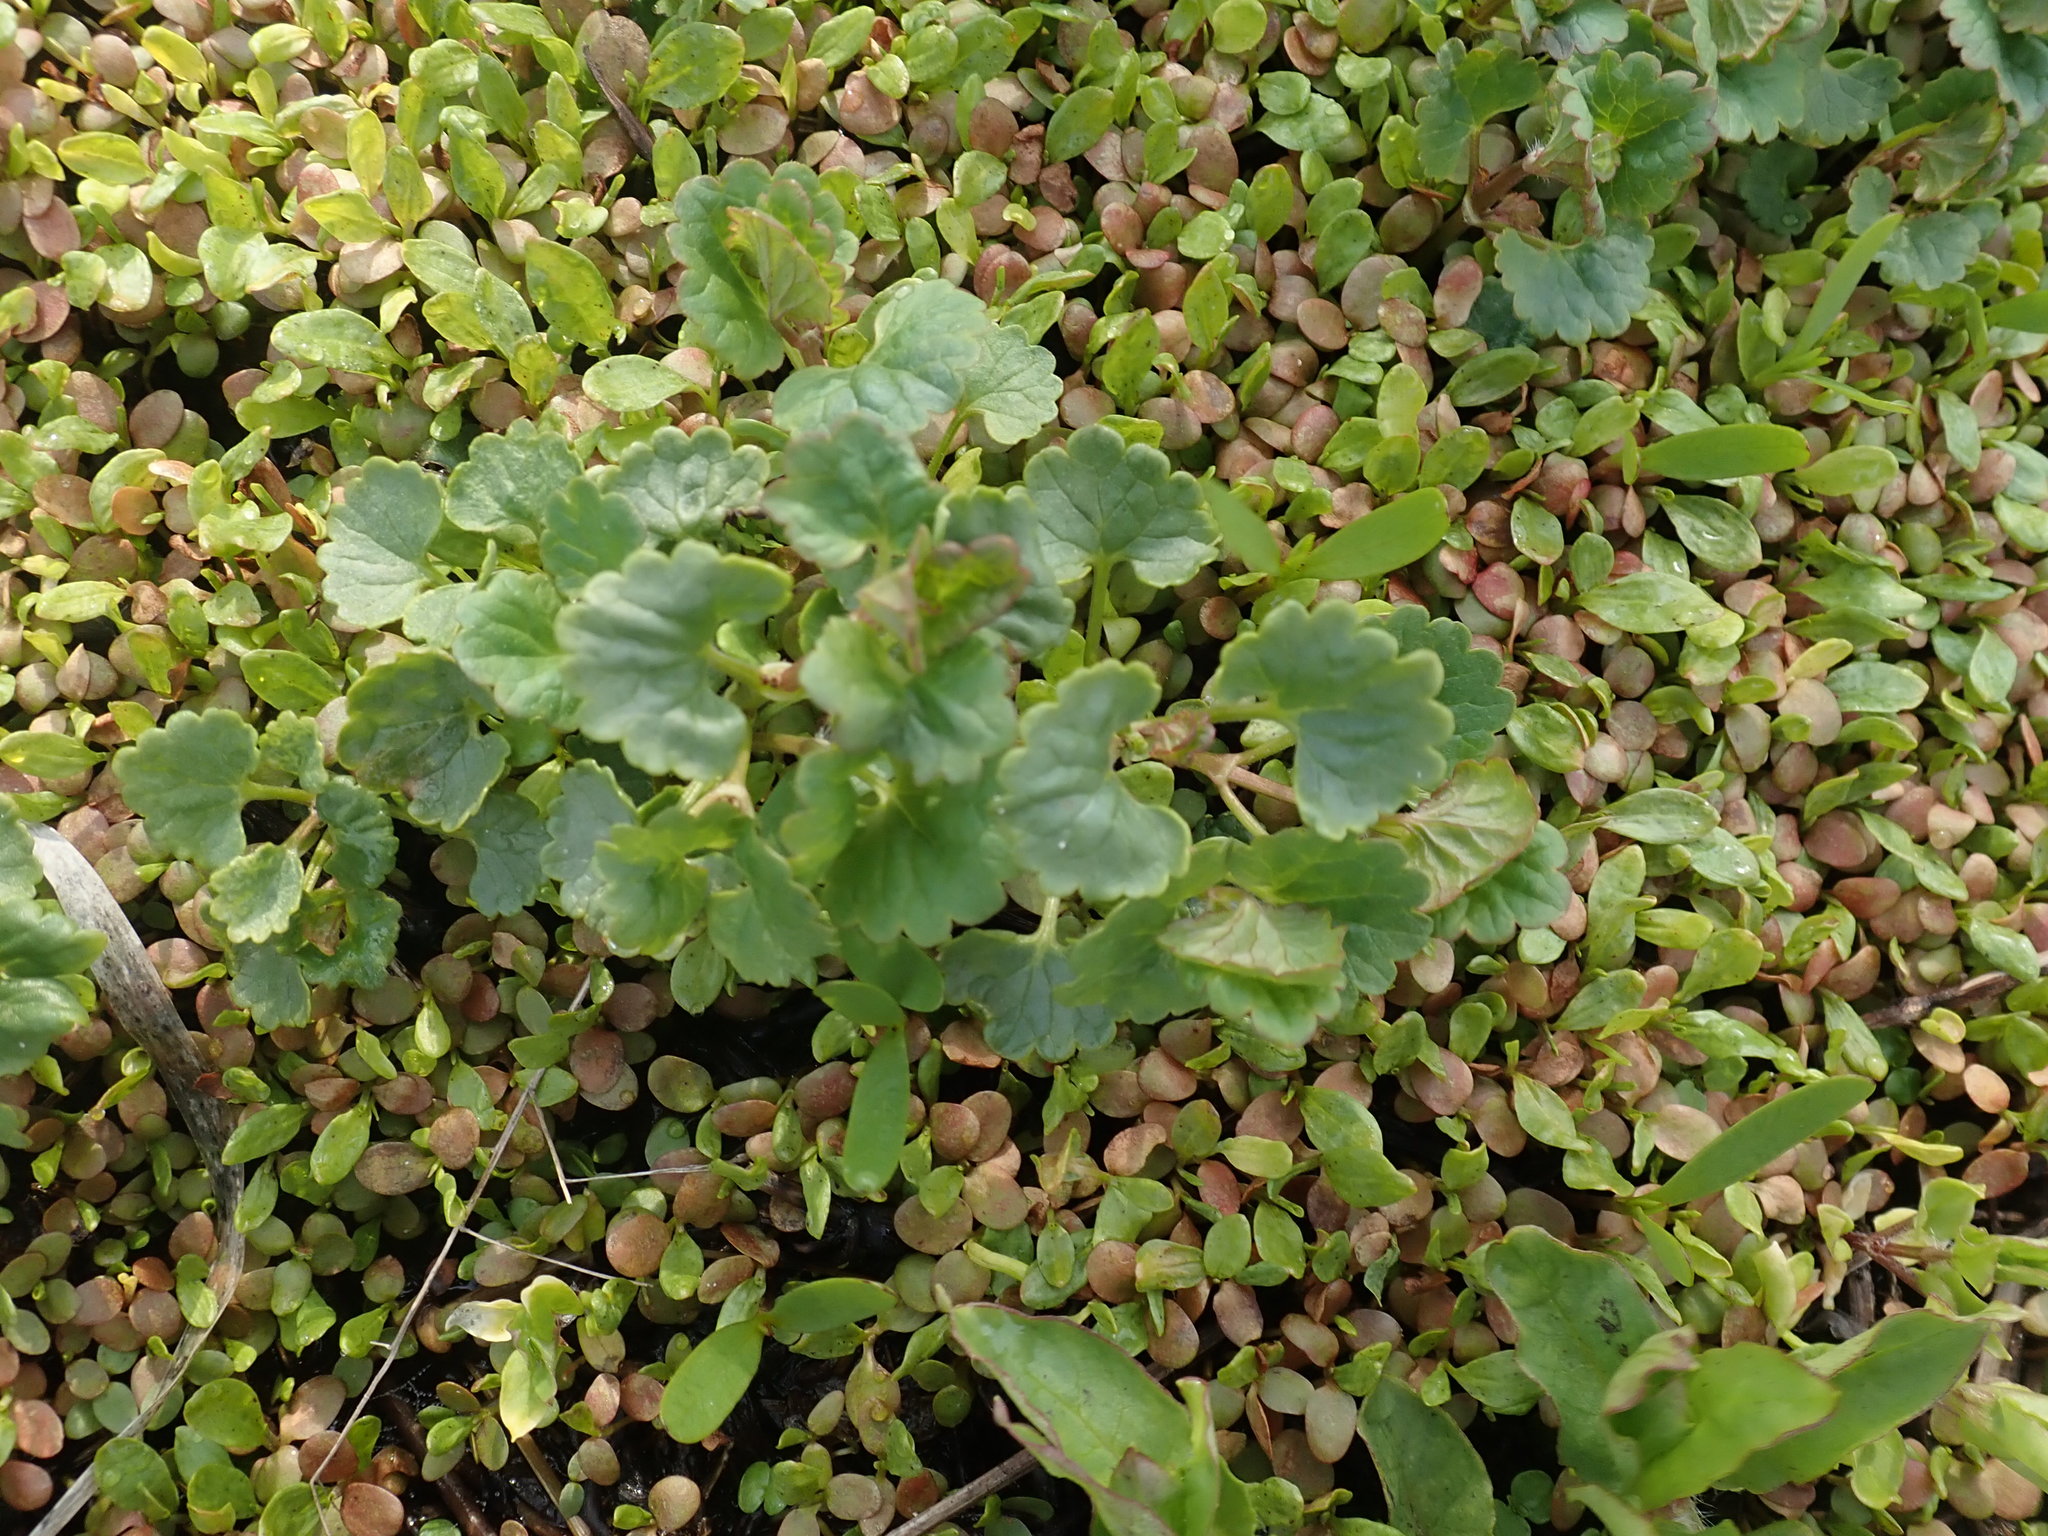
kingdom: Plantae
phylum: Tracheophyta
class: Magnoliopsida
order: Lamiales
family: Lamiaceae
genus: Glechoma
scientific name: Glechoma hederacea
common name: Ground ivy
